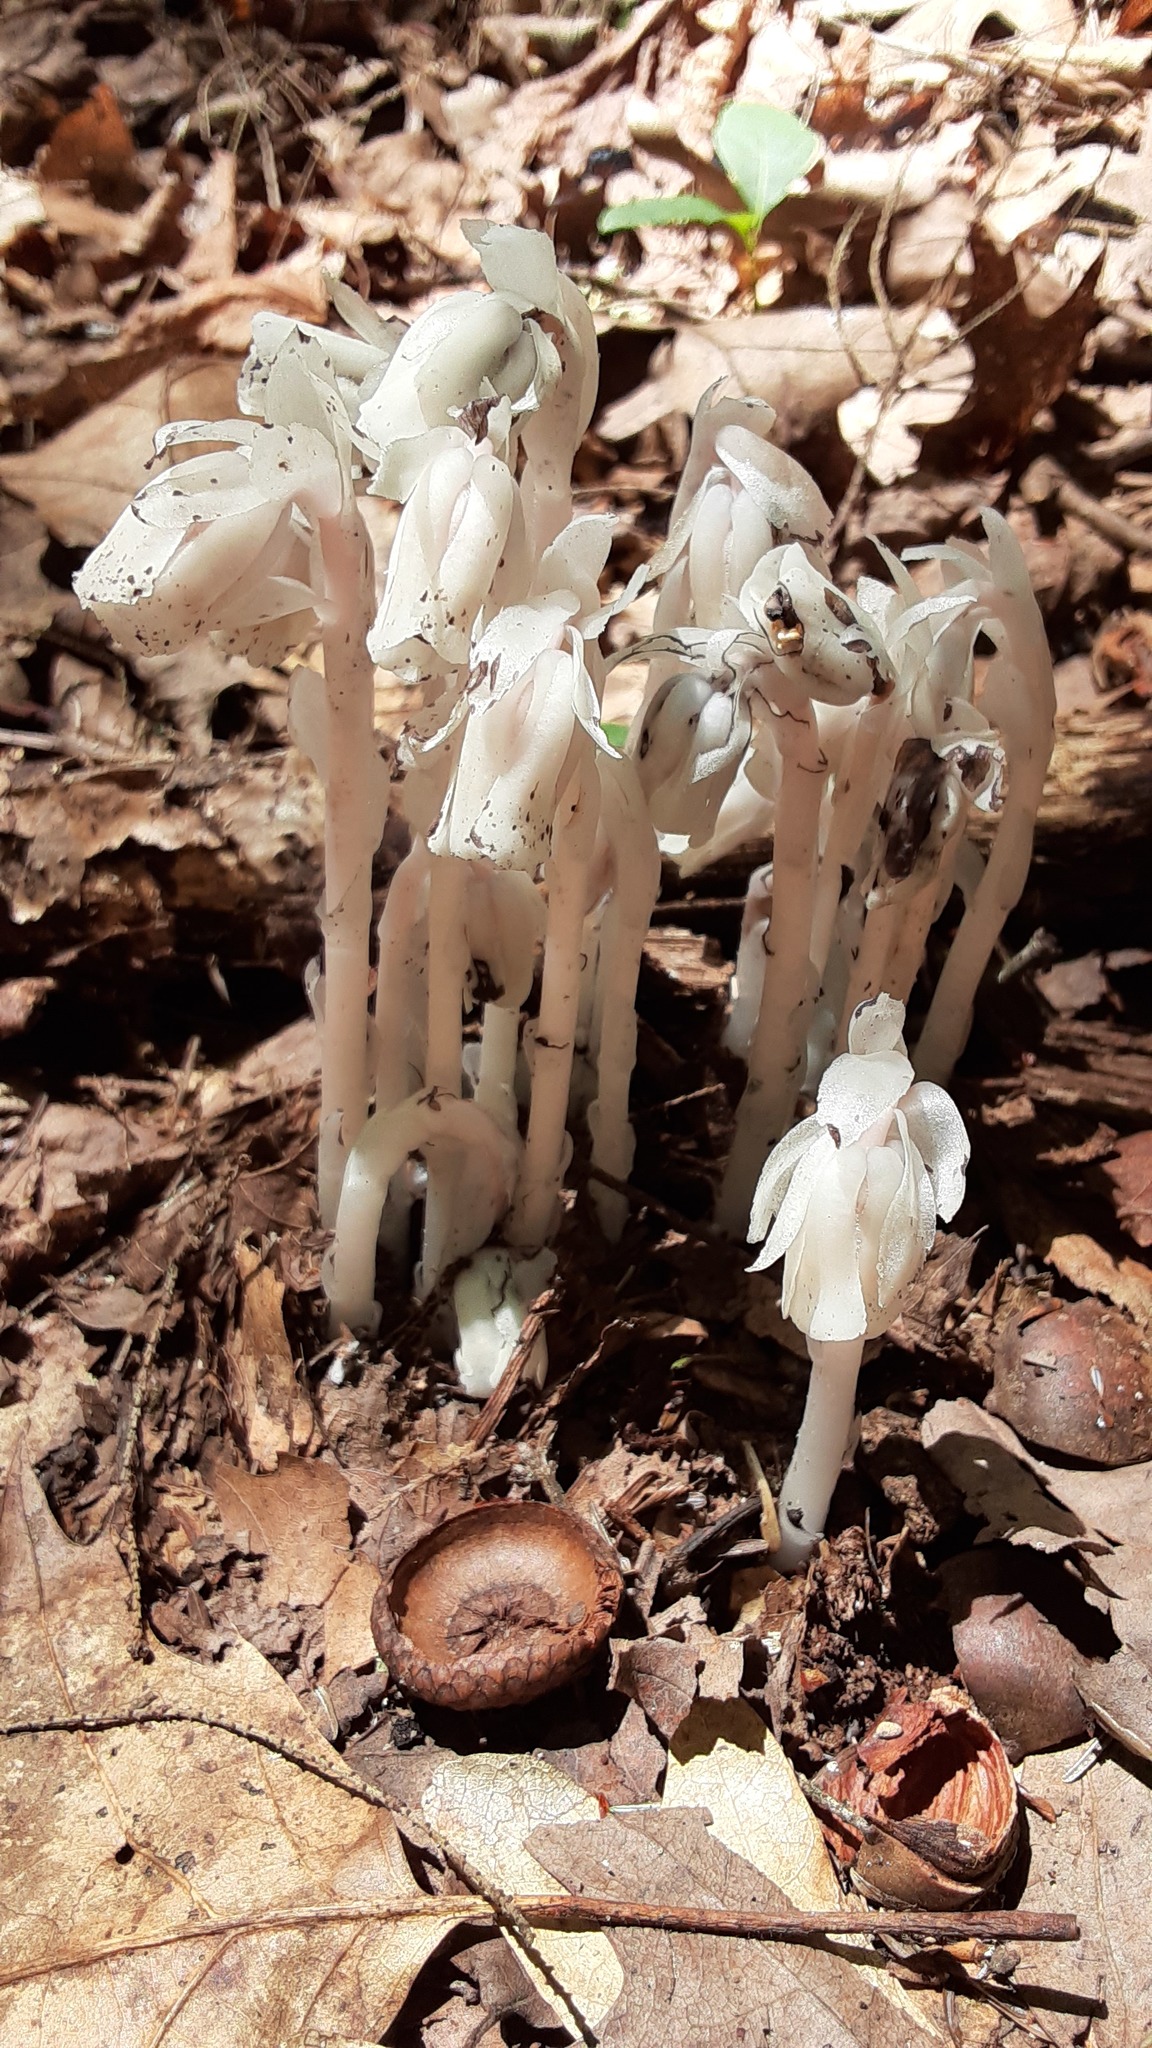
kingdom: Plantae
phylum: Tracheophyta
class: Magnoliopsida
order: Ericales
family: Ericaceae
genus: Monotropa
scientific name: Monotropa uniflora
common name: Convulsion root
